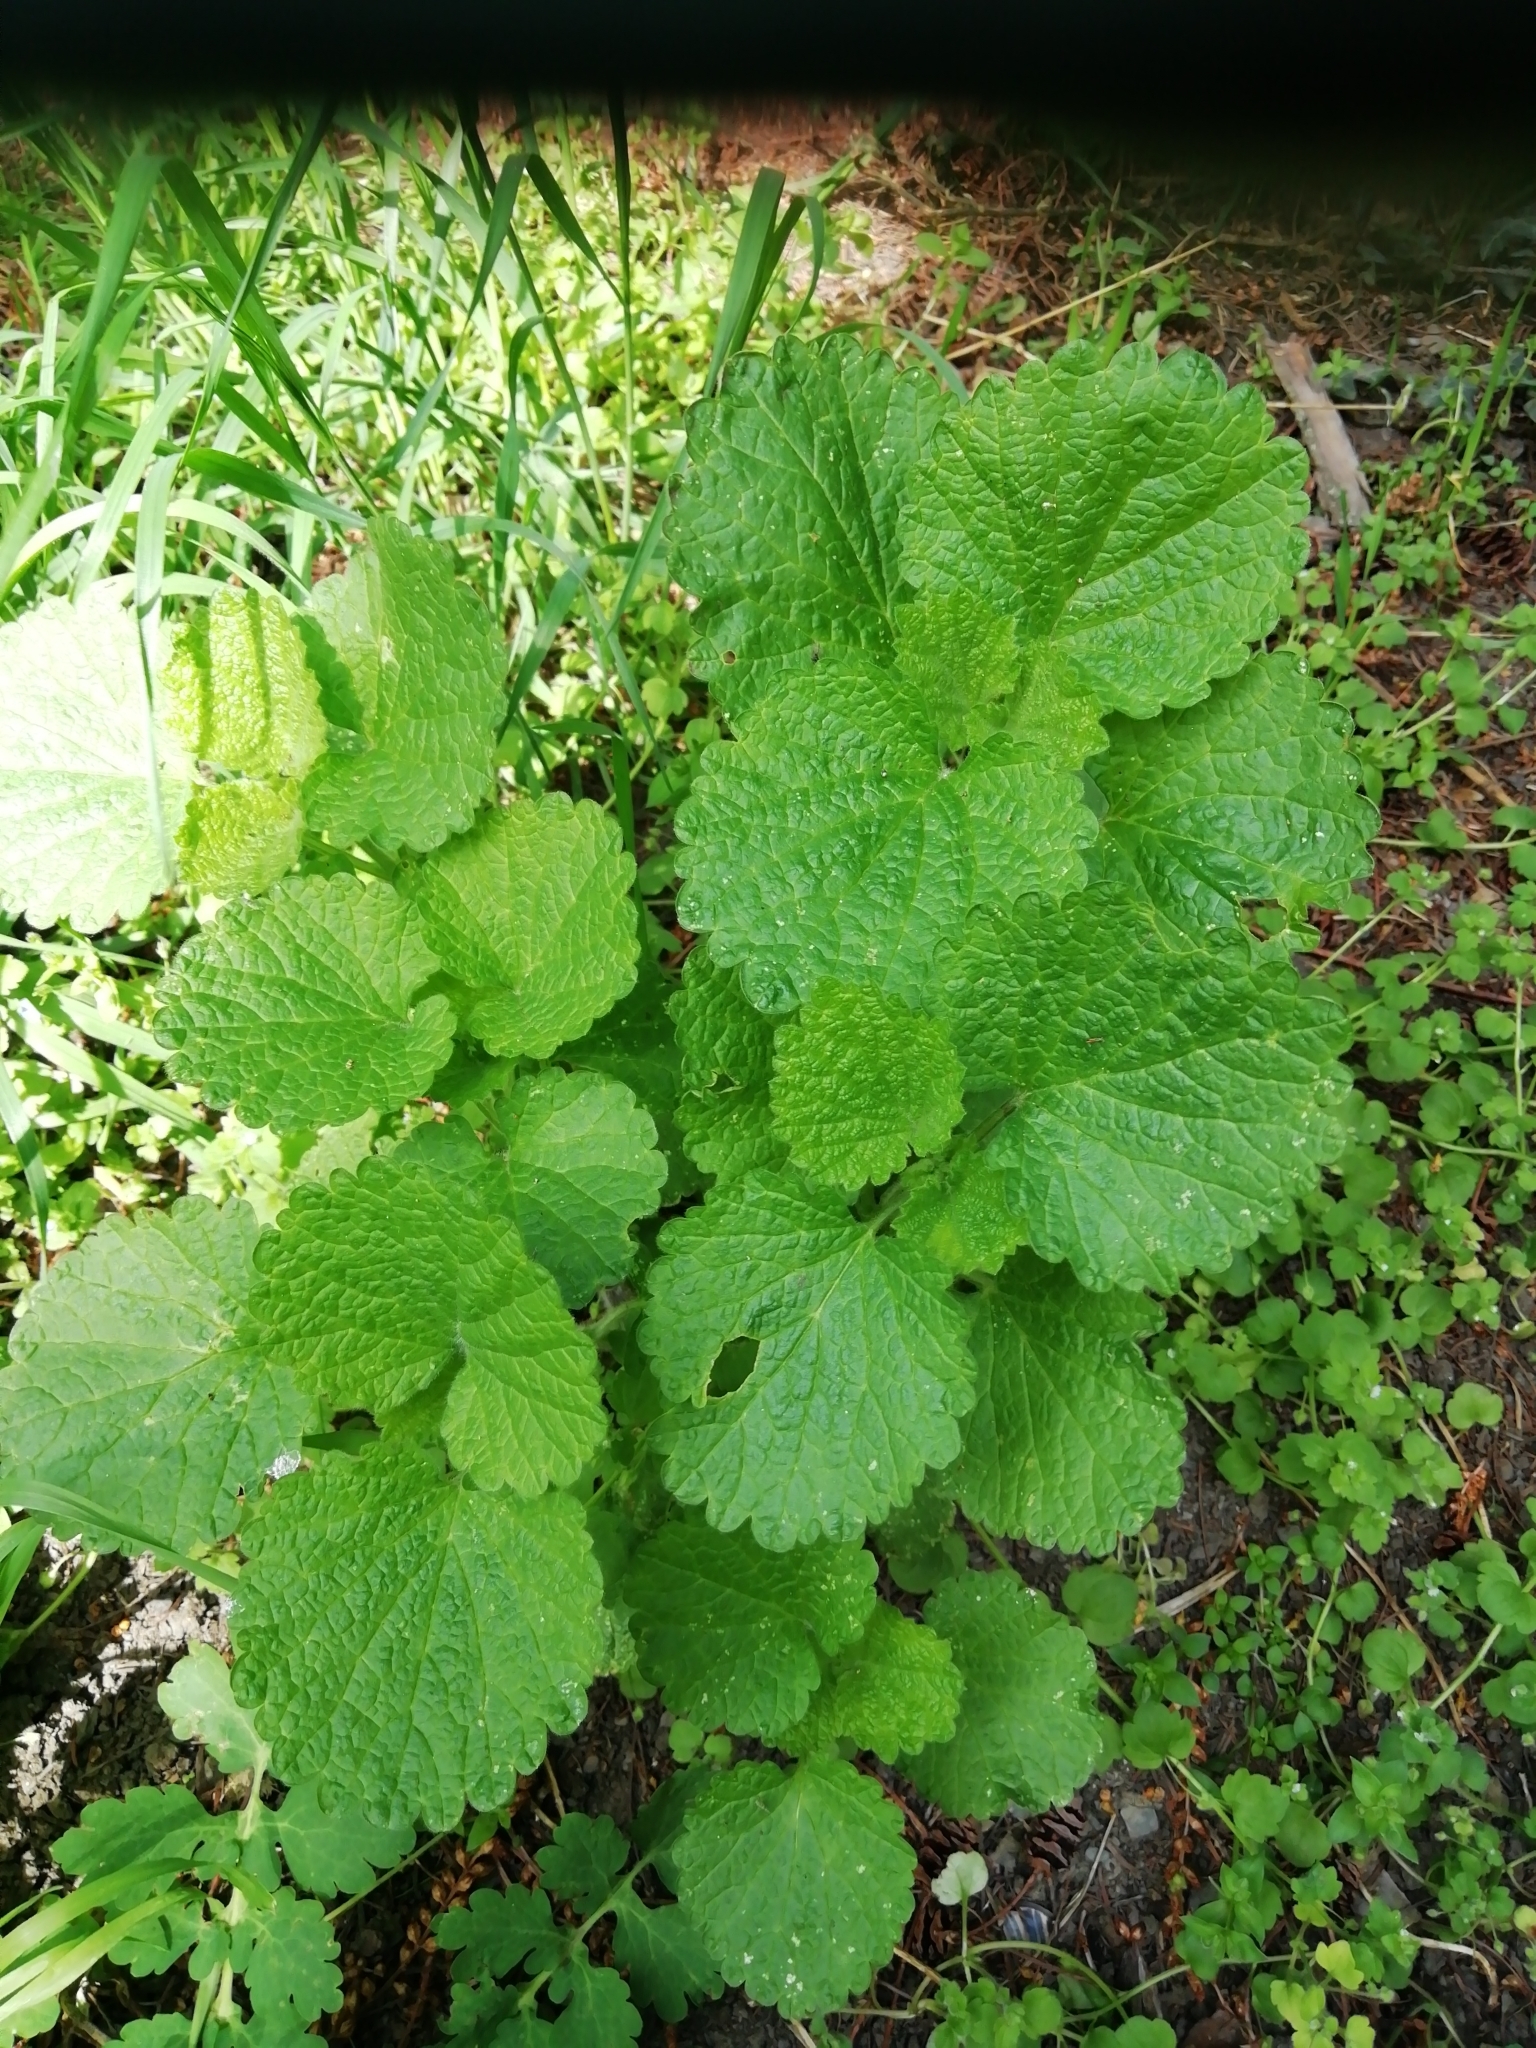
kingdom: Plantae
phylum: Tracheophyta
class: Magnoliopsida
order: Lamiales
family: Lamiaceae
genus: Ballota
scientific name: Ballota nigra
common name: Black horehound
